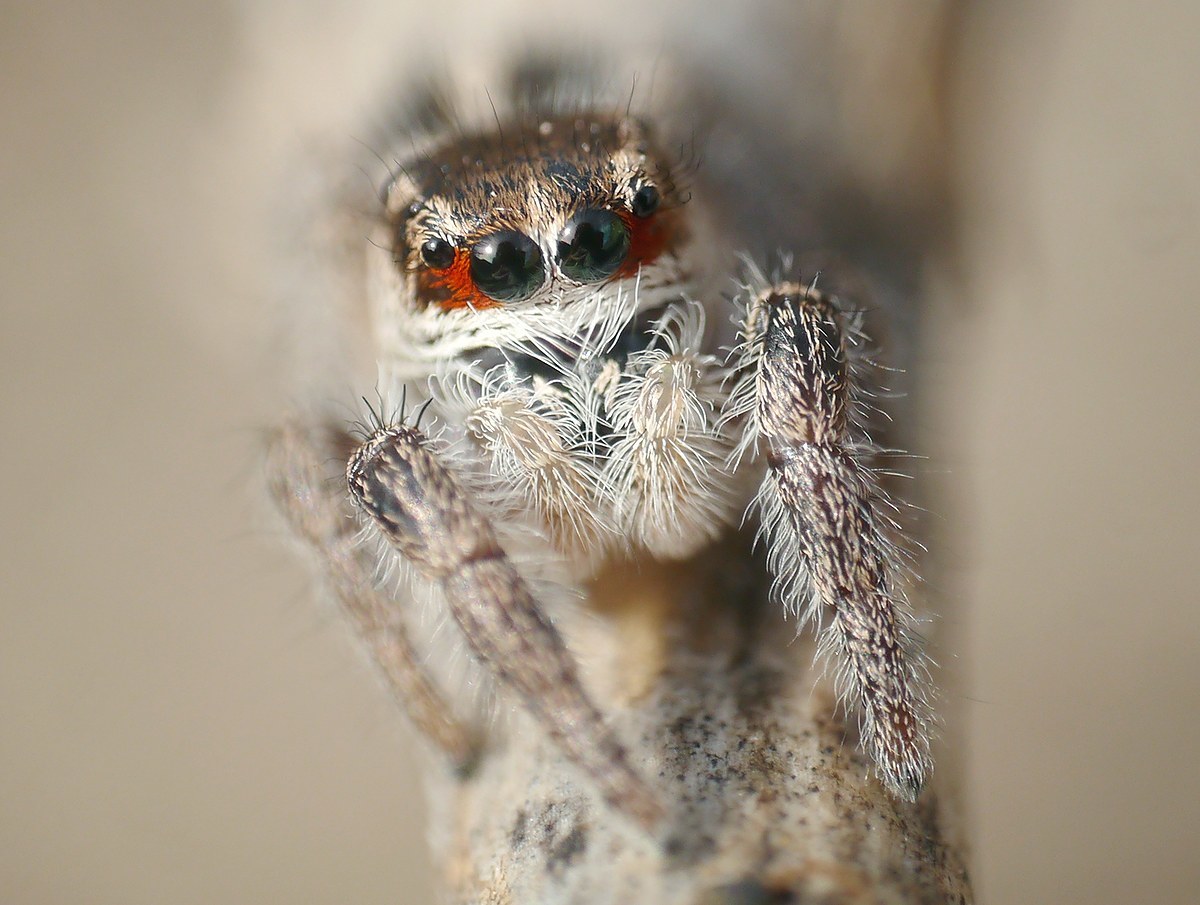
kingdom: Animalia
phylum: Arthropoda
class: Arachnida
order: Araneae
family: Salticidae
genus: Pellenes
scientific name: Pellenes seriatus
